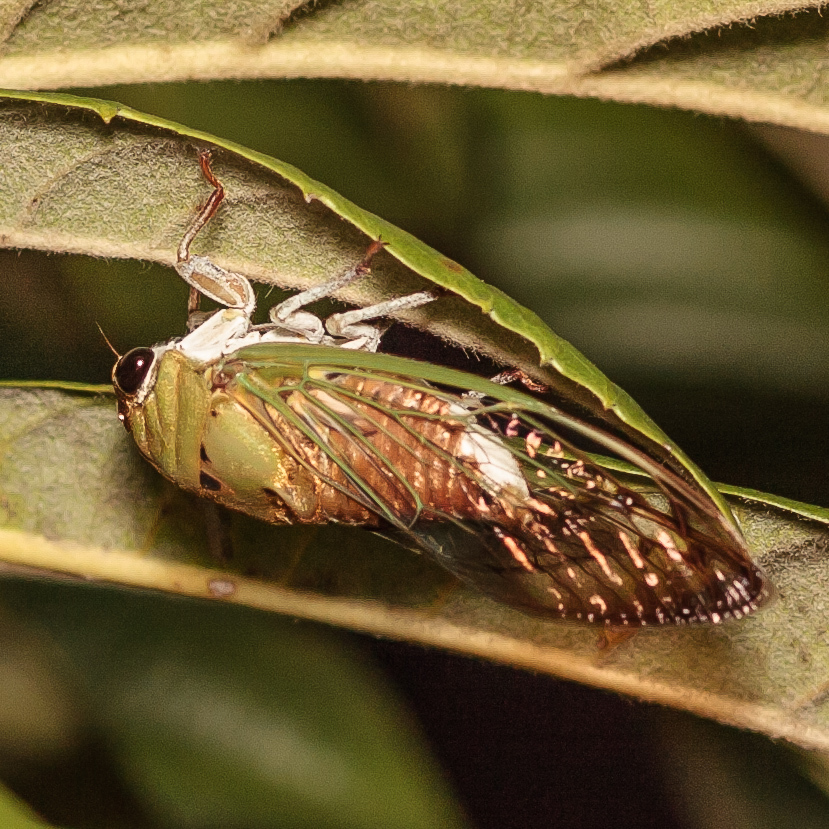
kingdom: Animalia
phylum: Arthropoda
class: Insecta
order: Hemiptera
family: Cicadidae
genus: Neotibicen
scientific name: Neotibicen superbus
